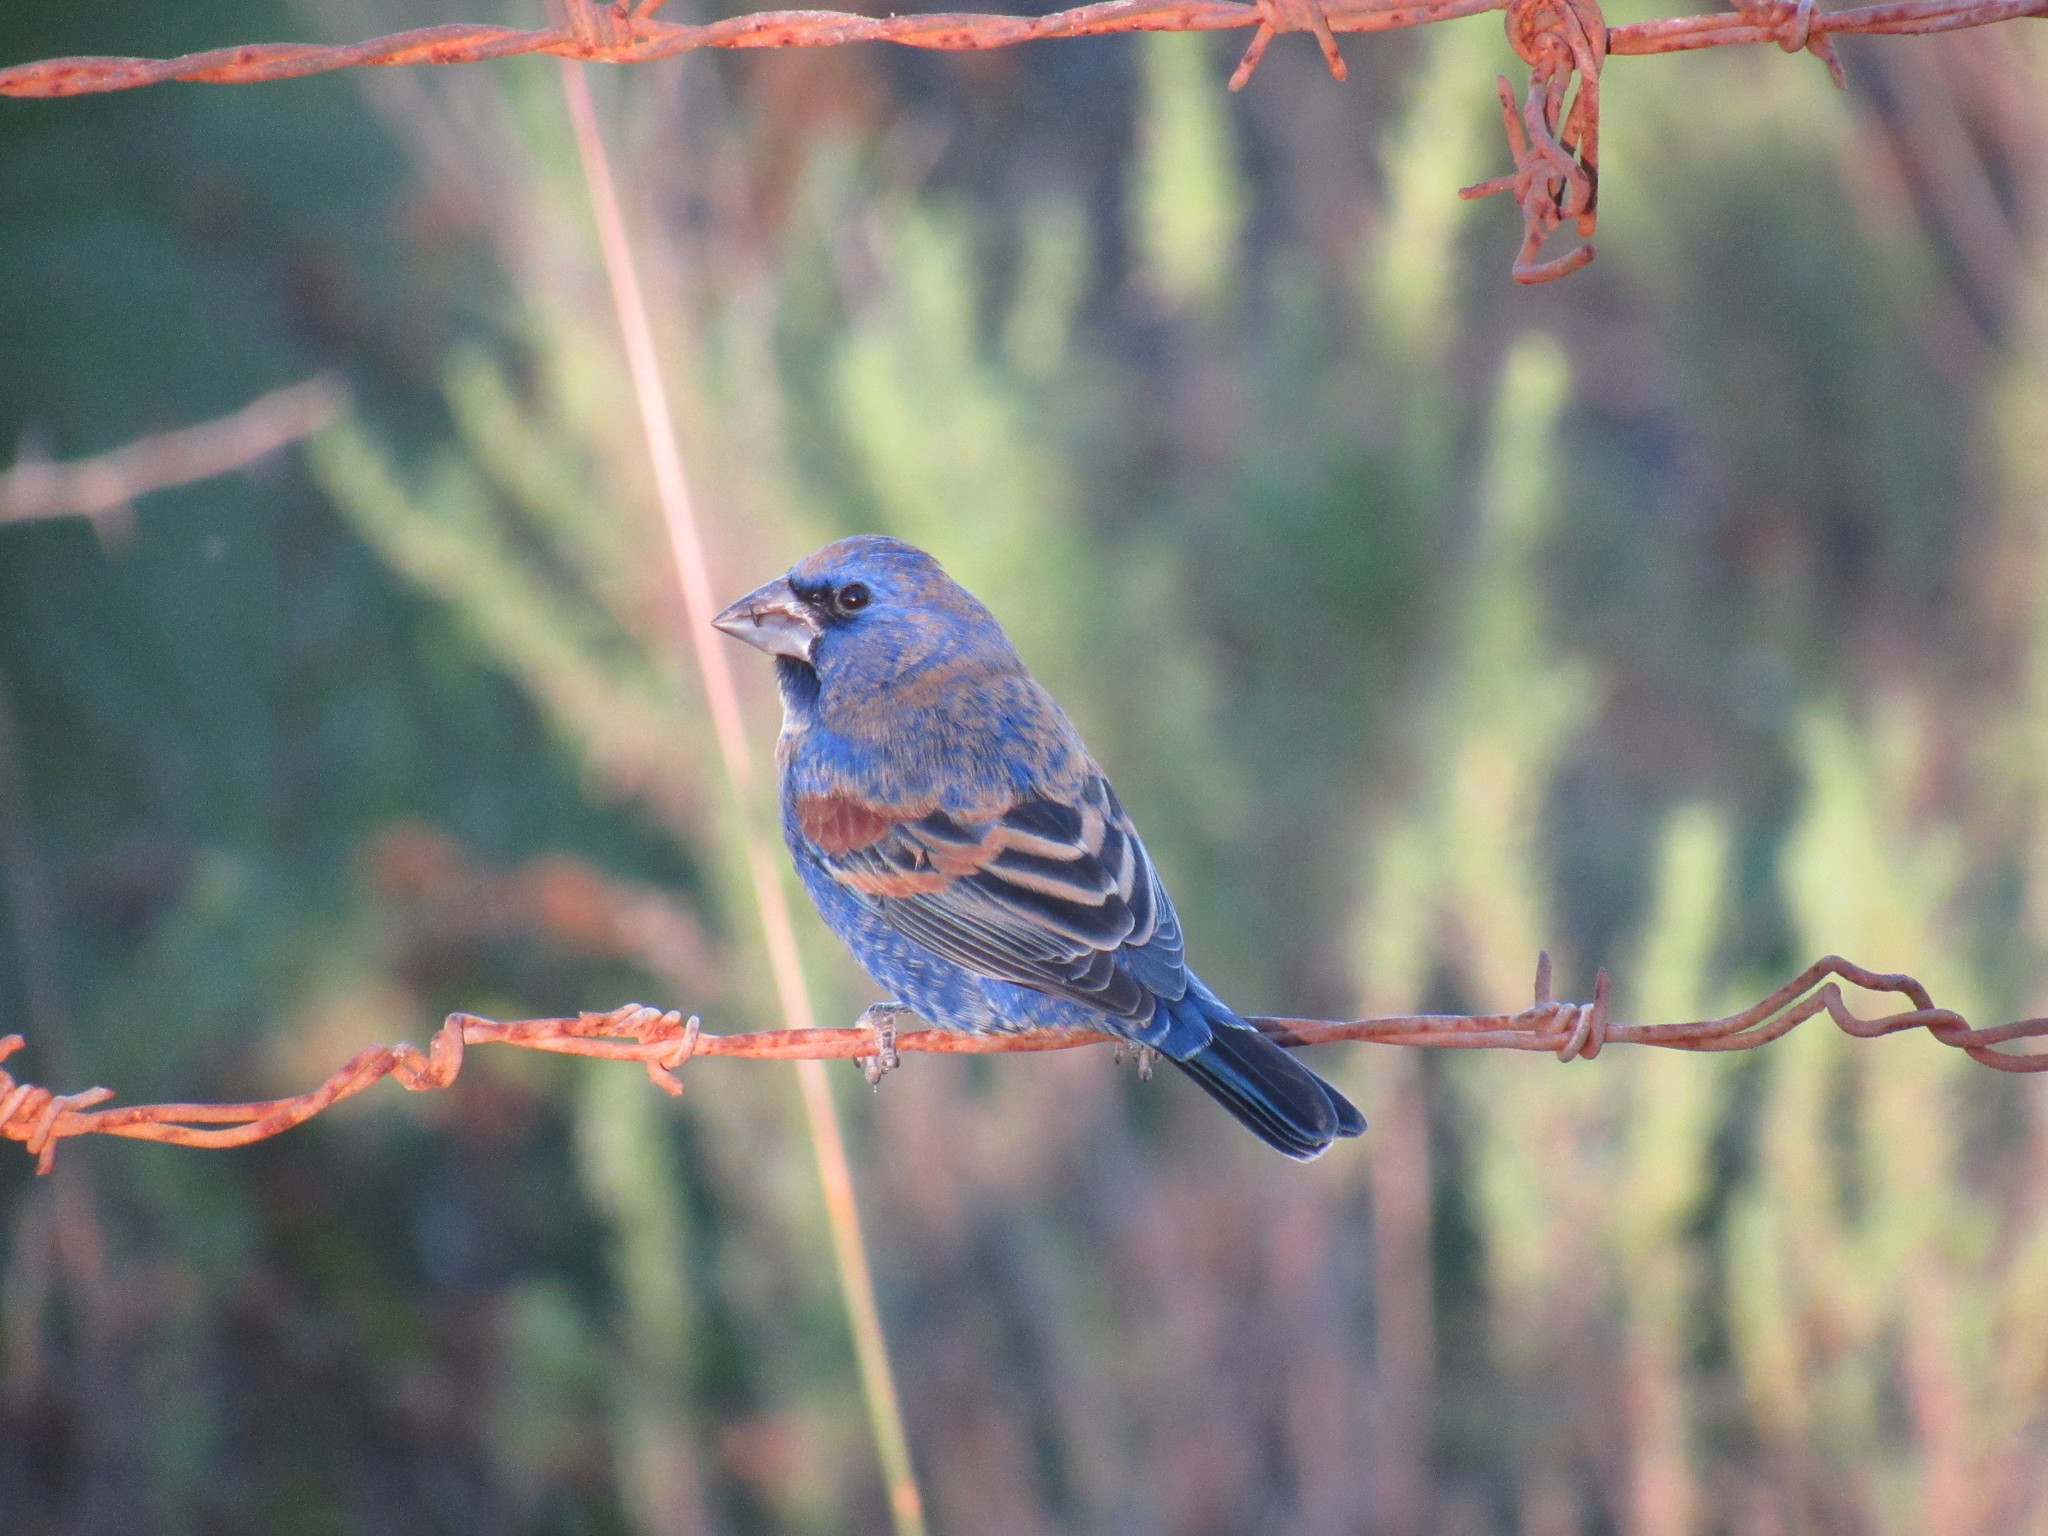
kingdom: Animalia
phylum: Chordata
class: Aves
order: Passeriformes
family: Cardinalidae
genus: Passerina
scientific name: Passerina caerulea
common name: Blue grosbeak
